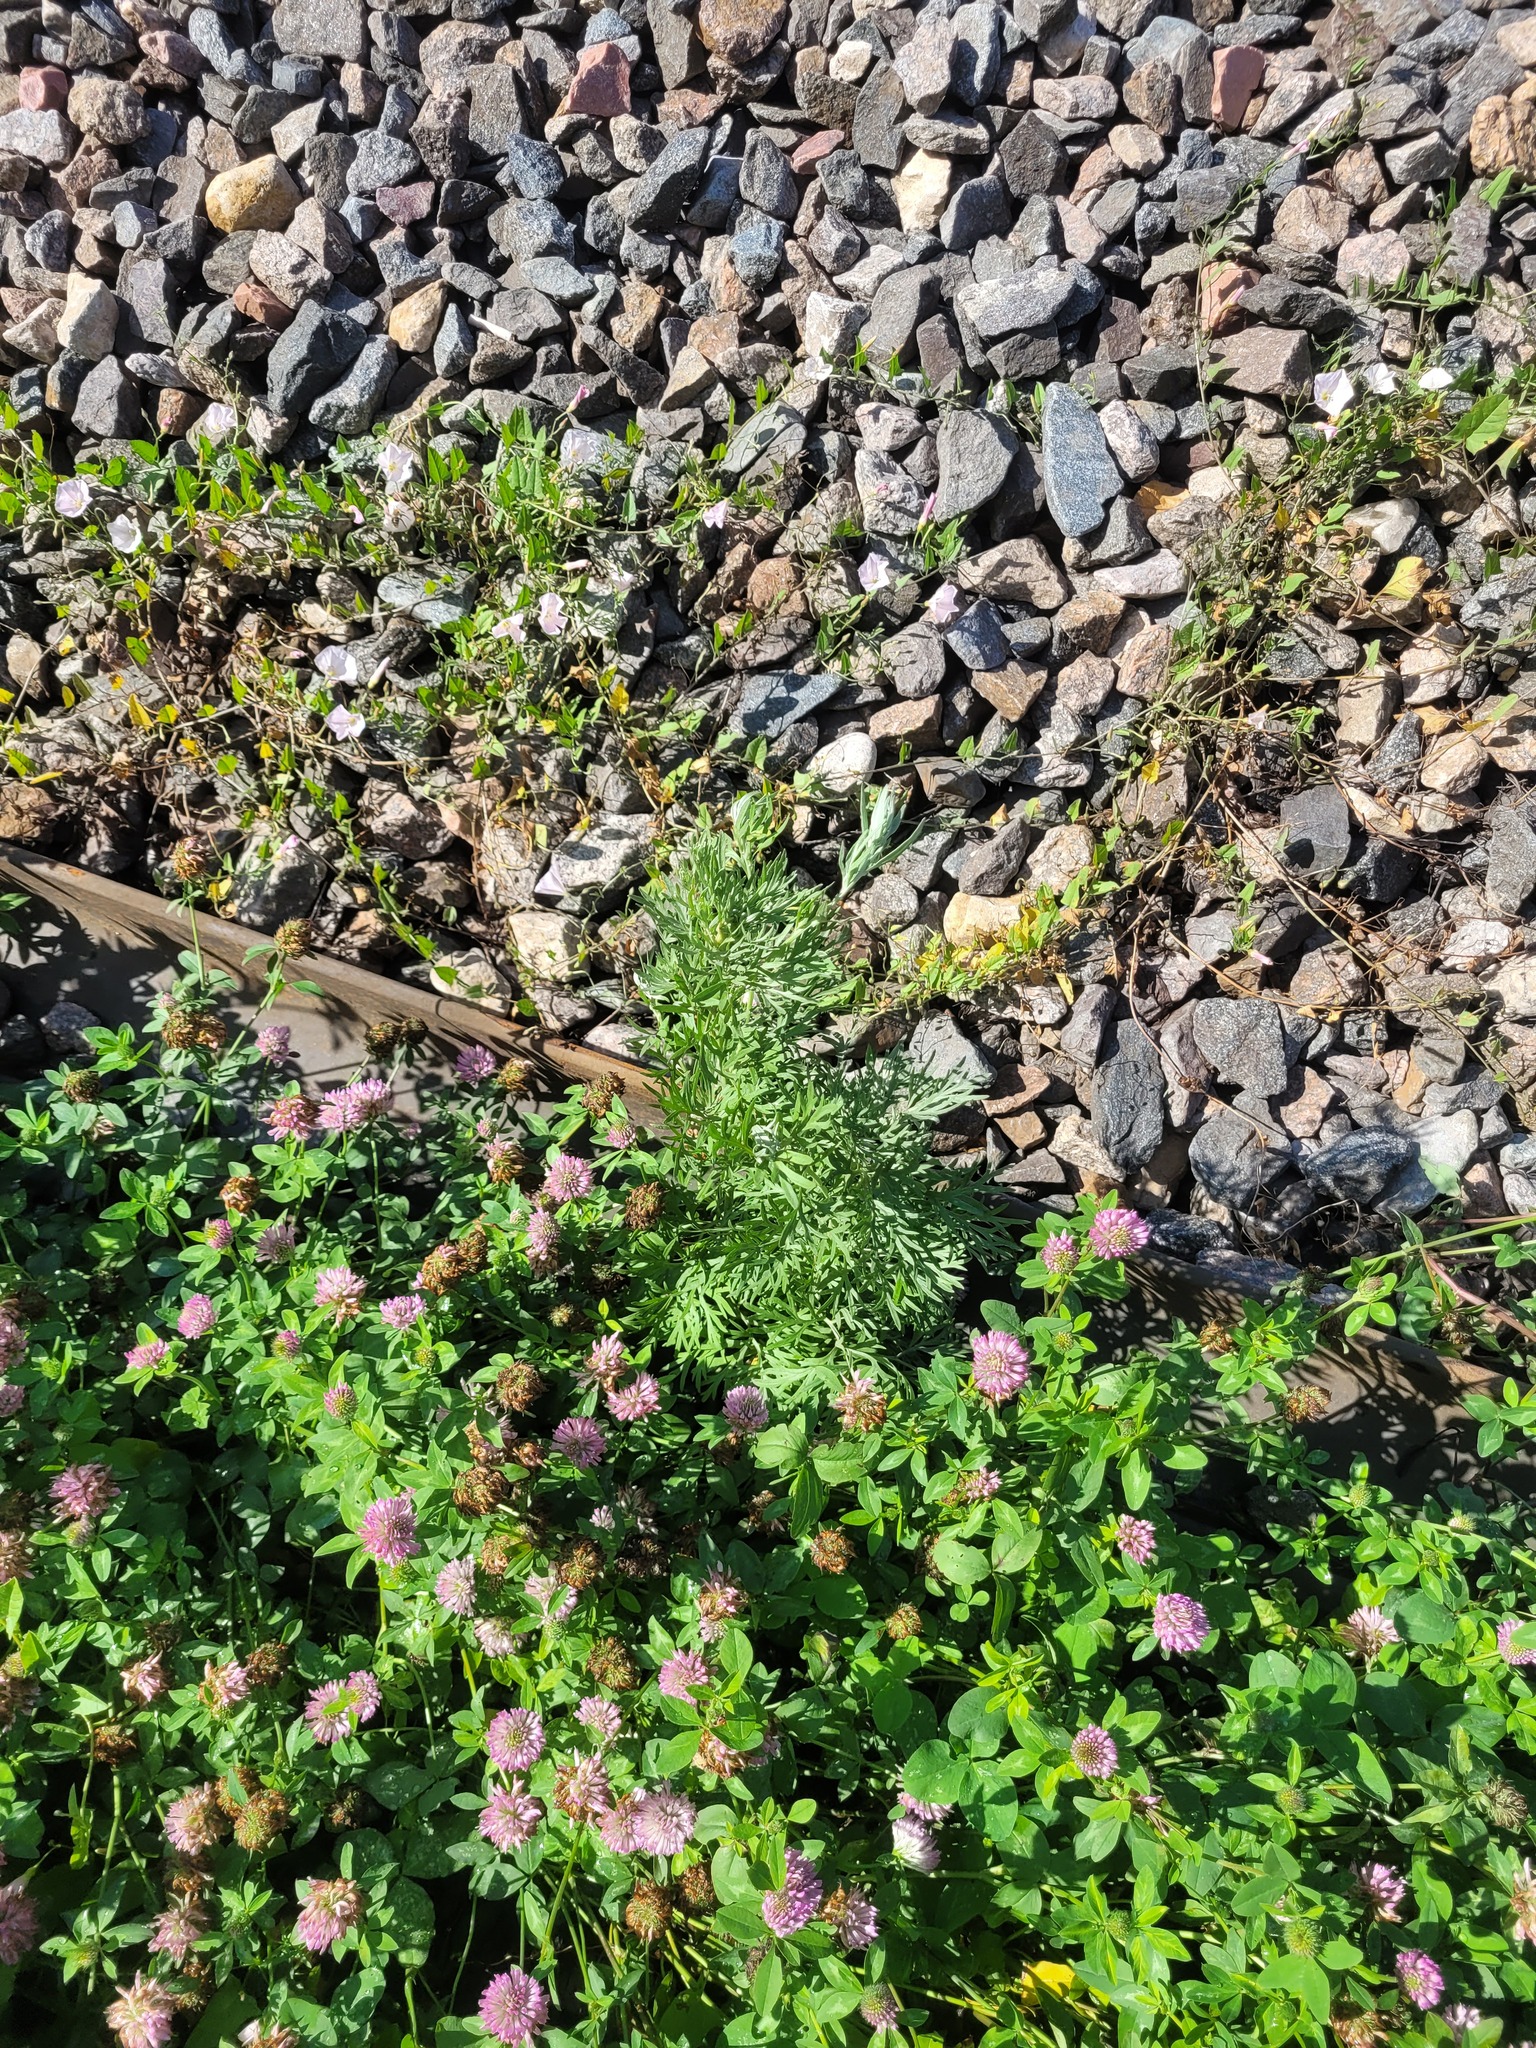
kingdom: Plantae
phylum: Tracheophyta
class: Magnoliopsida
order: Asterales
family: Asteraceae
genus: Artemisia
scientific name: Artemisia absinthium
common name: Wormwood
